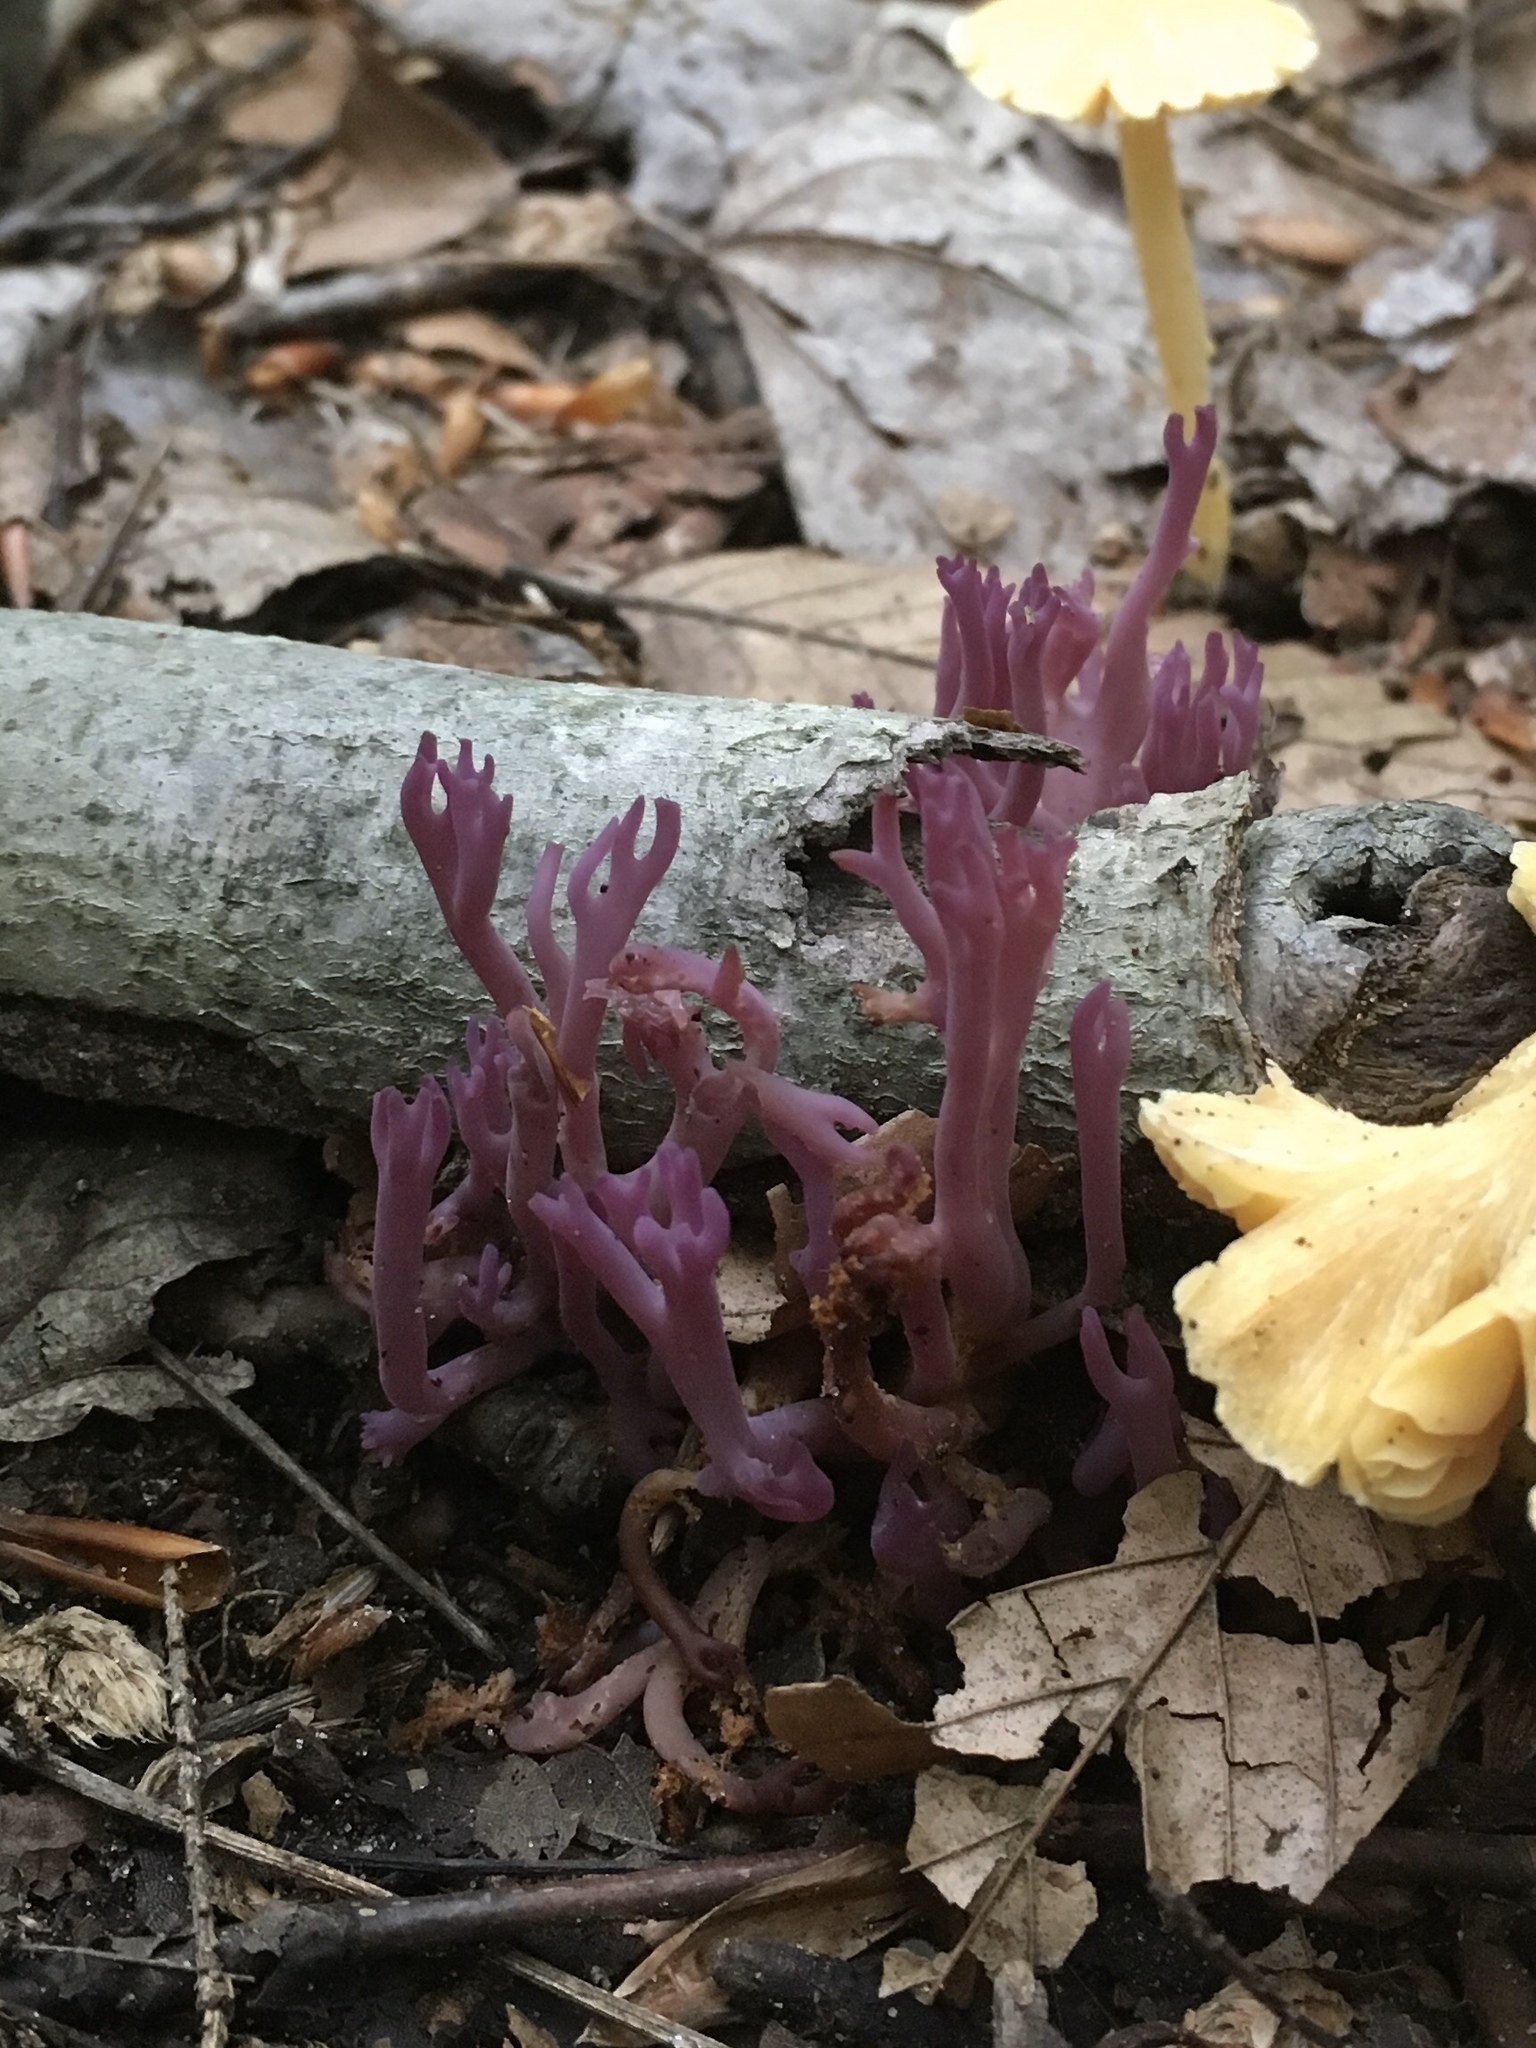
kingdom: Fungi
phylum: Basidiomycota
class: Agaricomycetes
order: Agaricales
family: Clavariaceae
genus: Clavaria
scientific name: Clavaria zollingeri
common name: Violet coral
